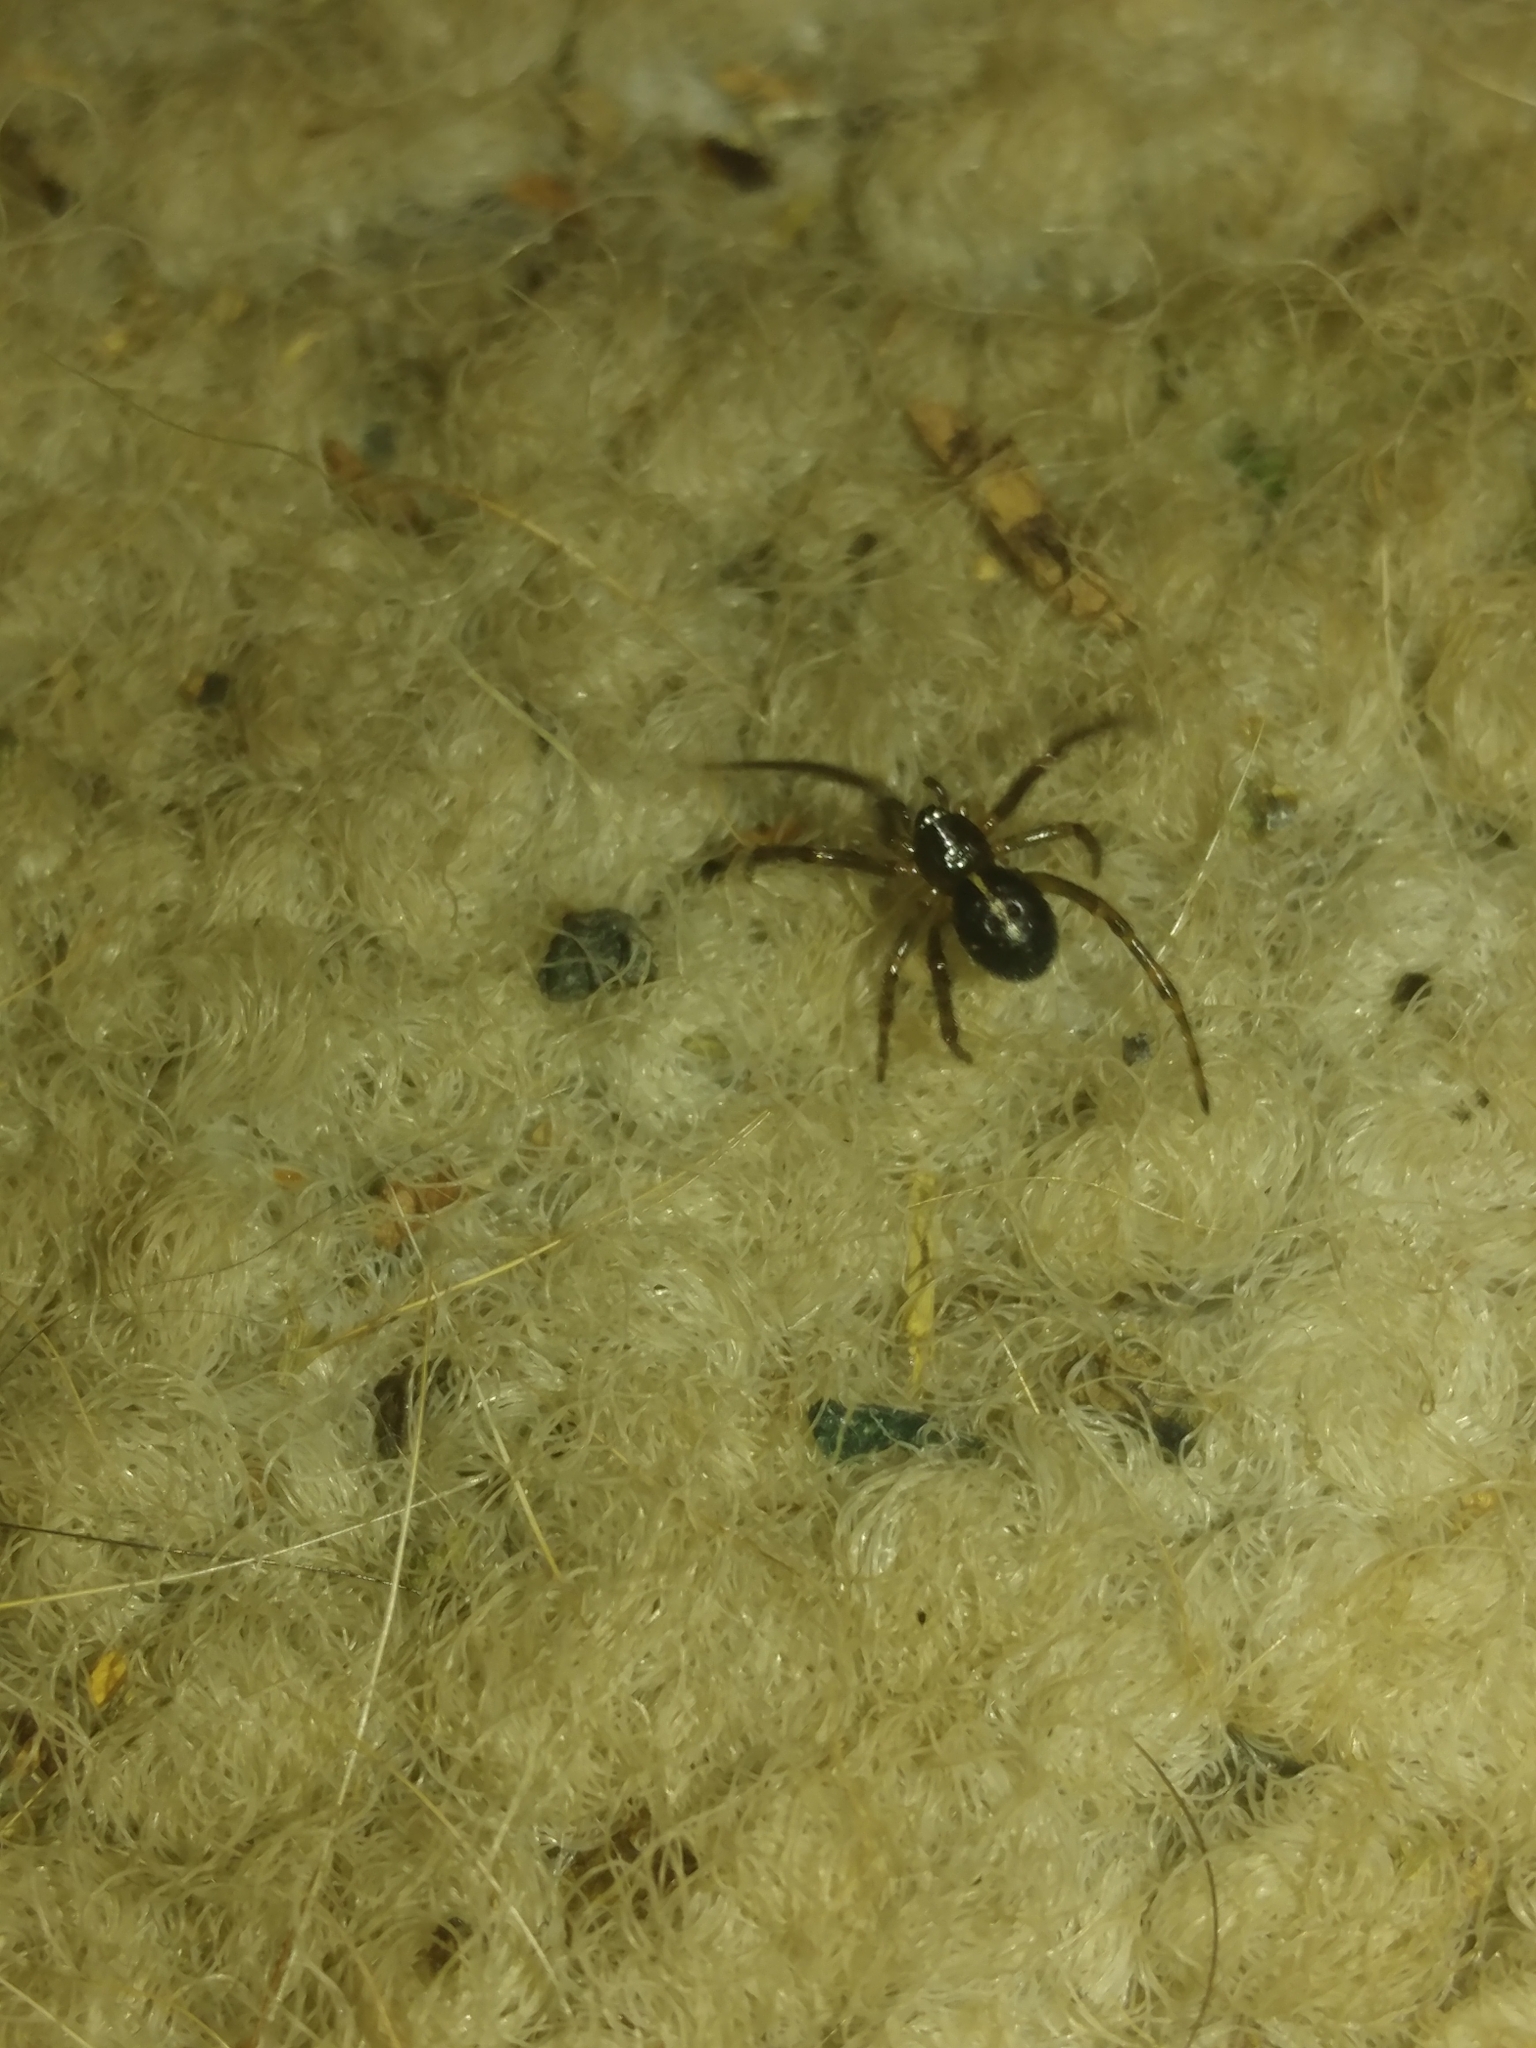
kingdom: Animalia
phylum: Arthropoda
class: Arachnida
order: Araneae
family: Theridiidae
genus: Steatoda
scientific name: Steatoda borealis
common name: Boreal combfoot
